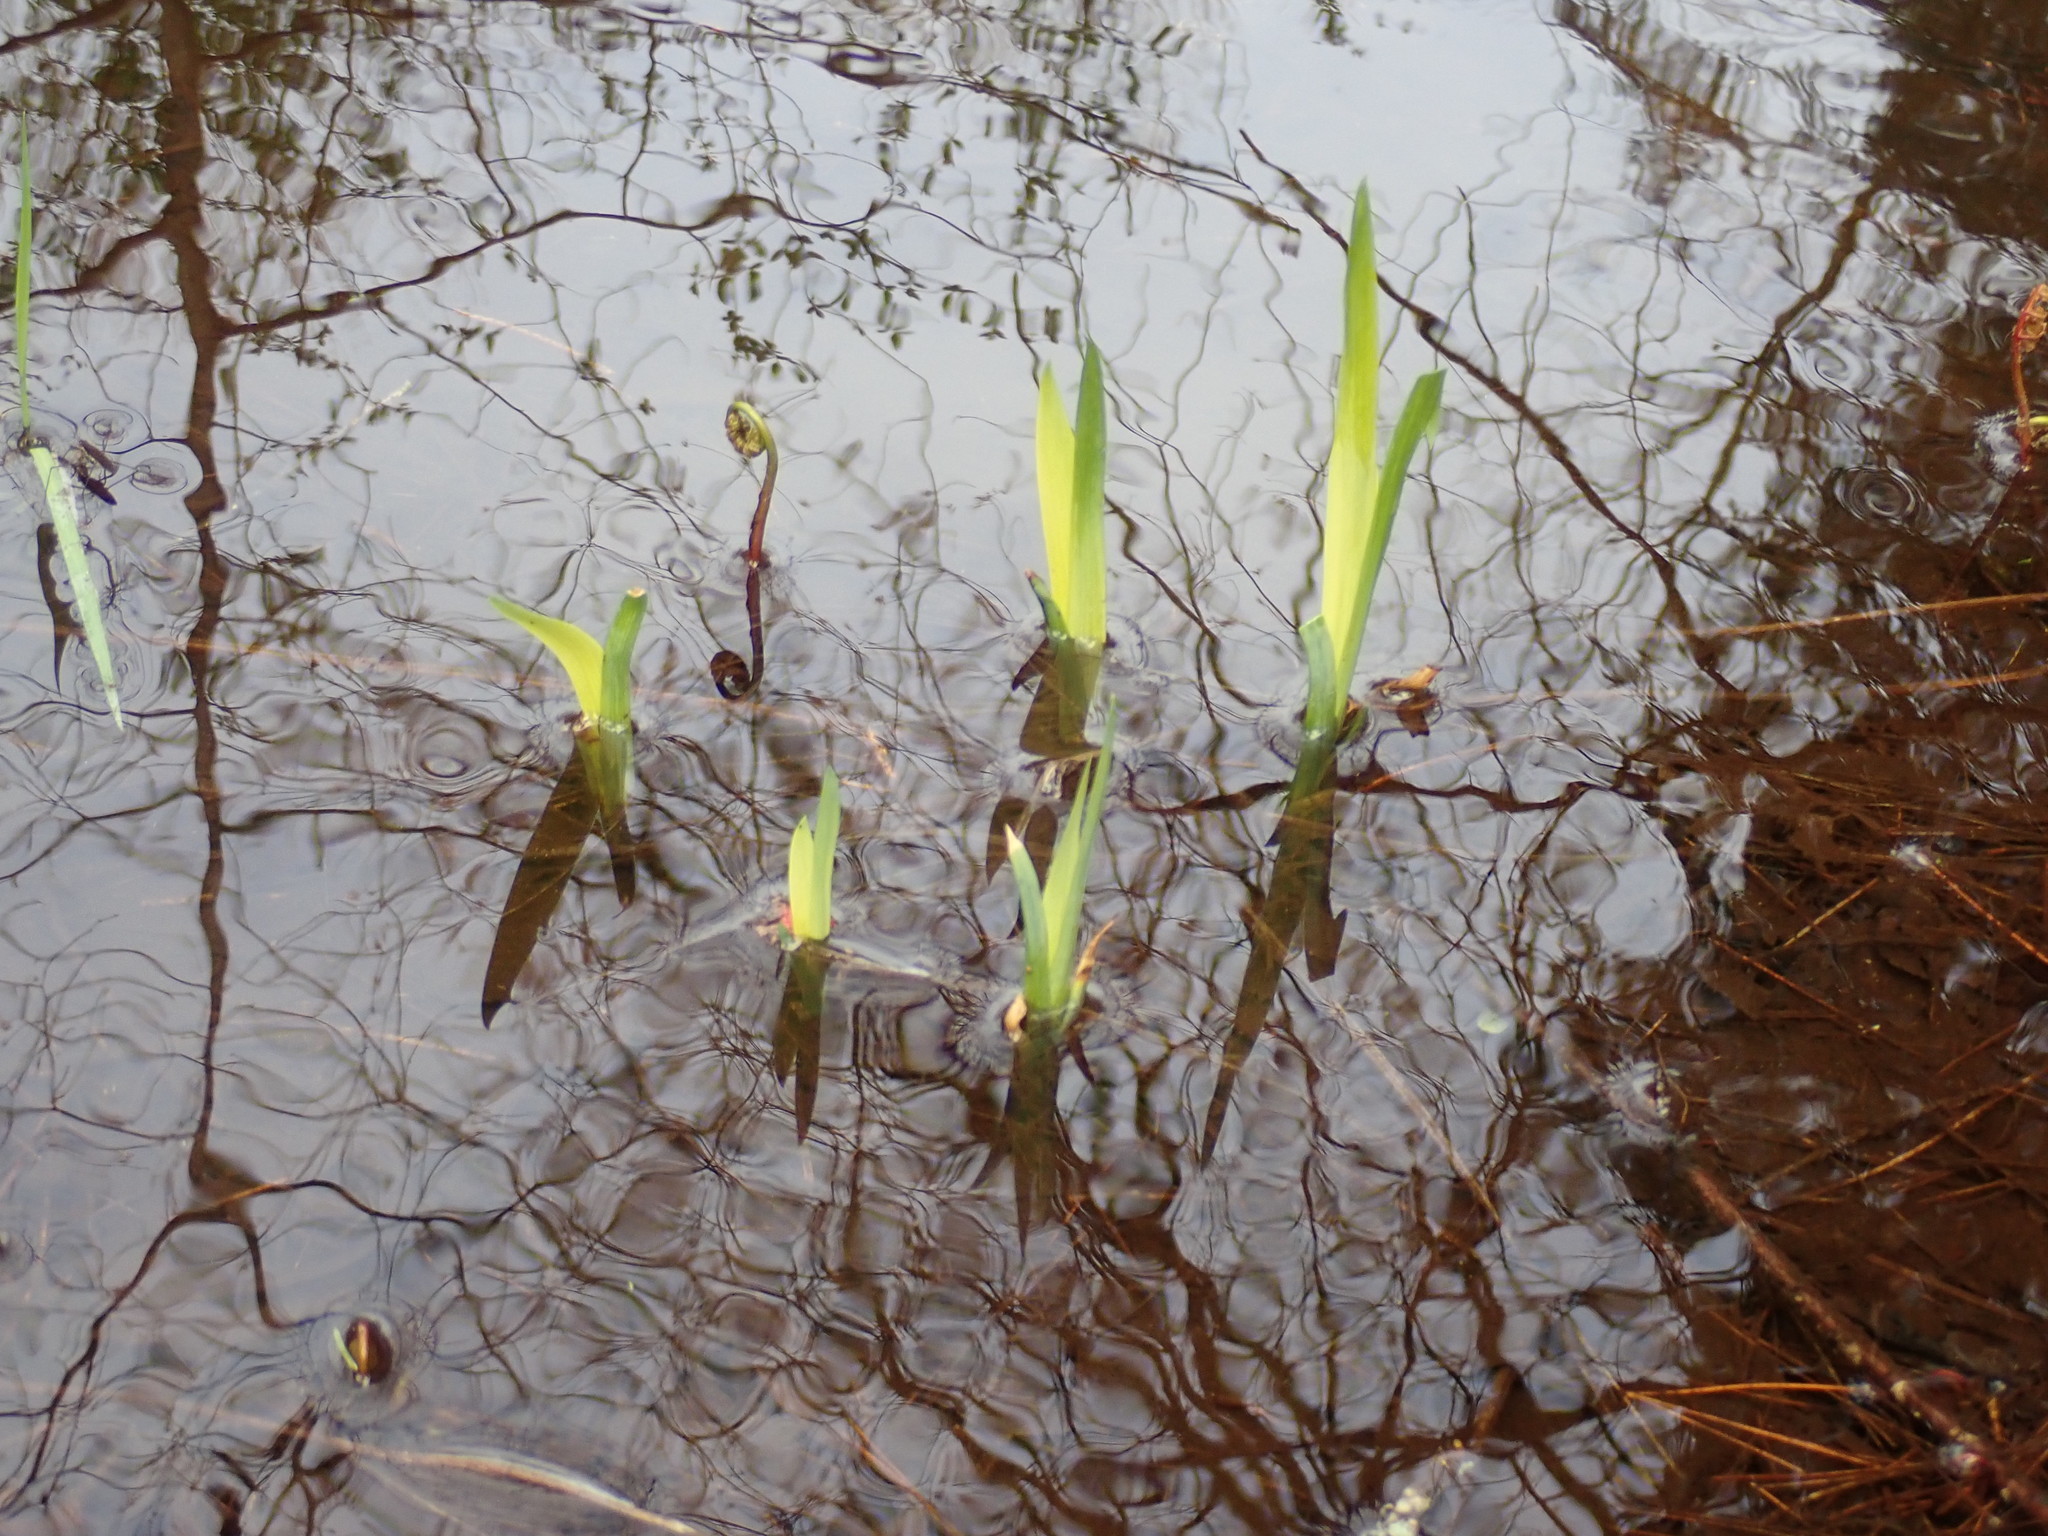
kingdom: Plantae
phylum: Tracheophyta
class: Liliopsida
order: Asparagales
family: Iridaceae
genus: Iris
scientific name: Iris
